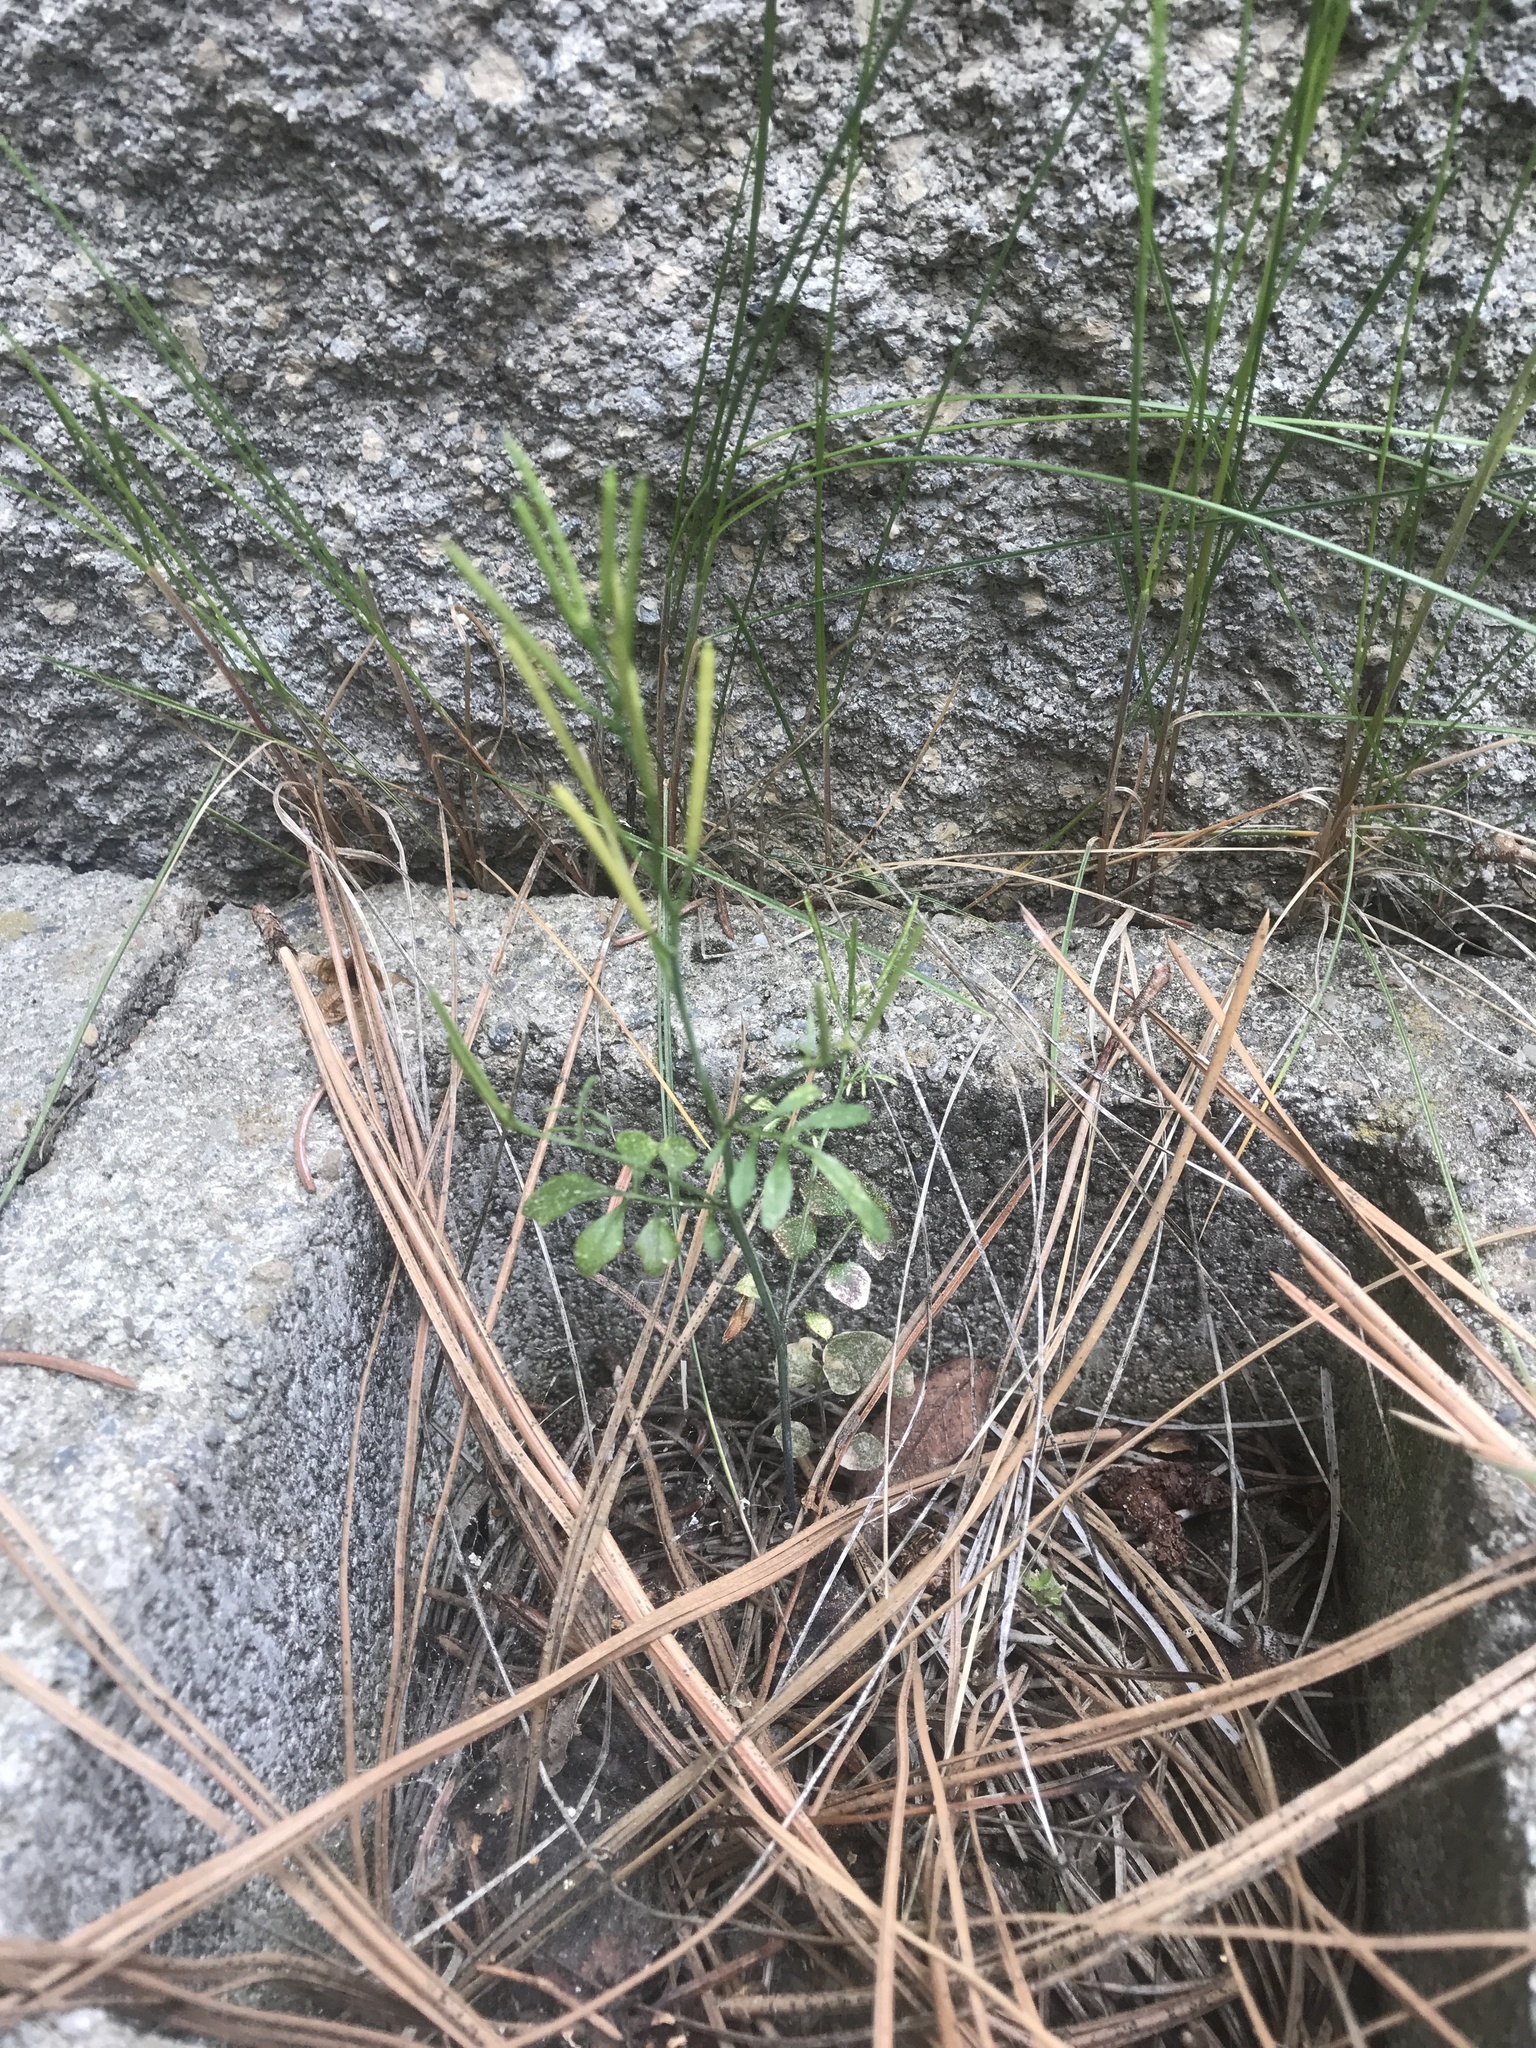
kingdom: Plantae
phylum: Tracheophyta
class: Magnoliopsida
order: Brassicales
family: Brassicaceae
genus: Cardamine
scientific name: Cardamine hirsuta
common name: Hairy bittercress
